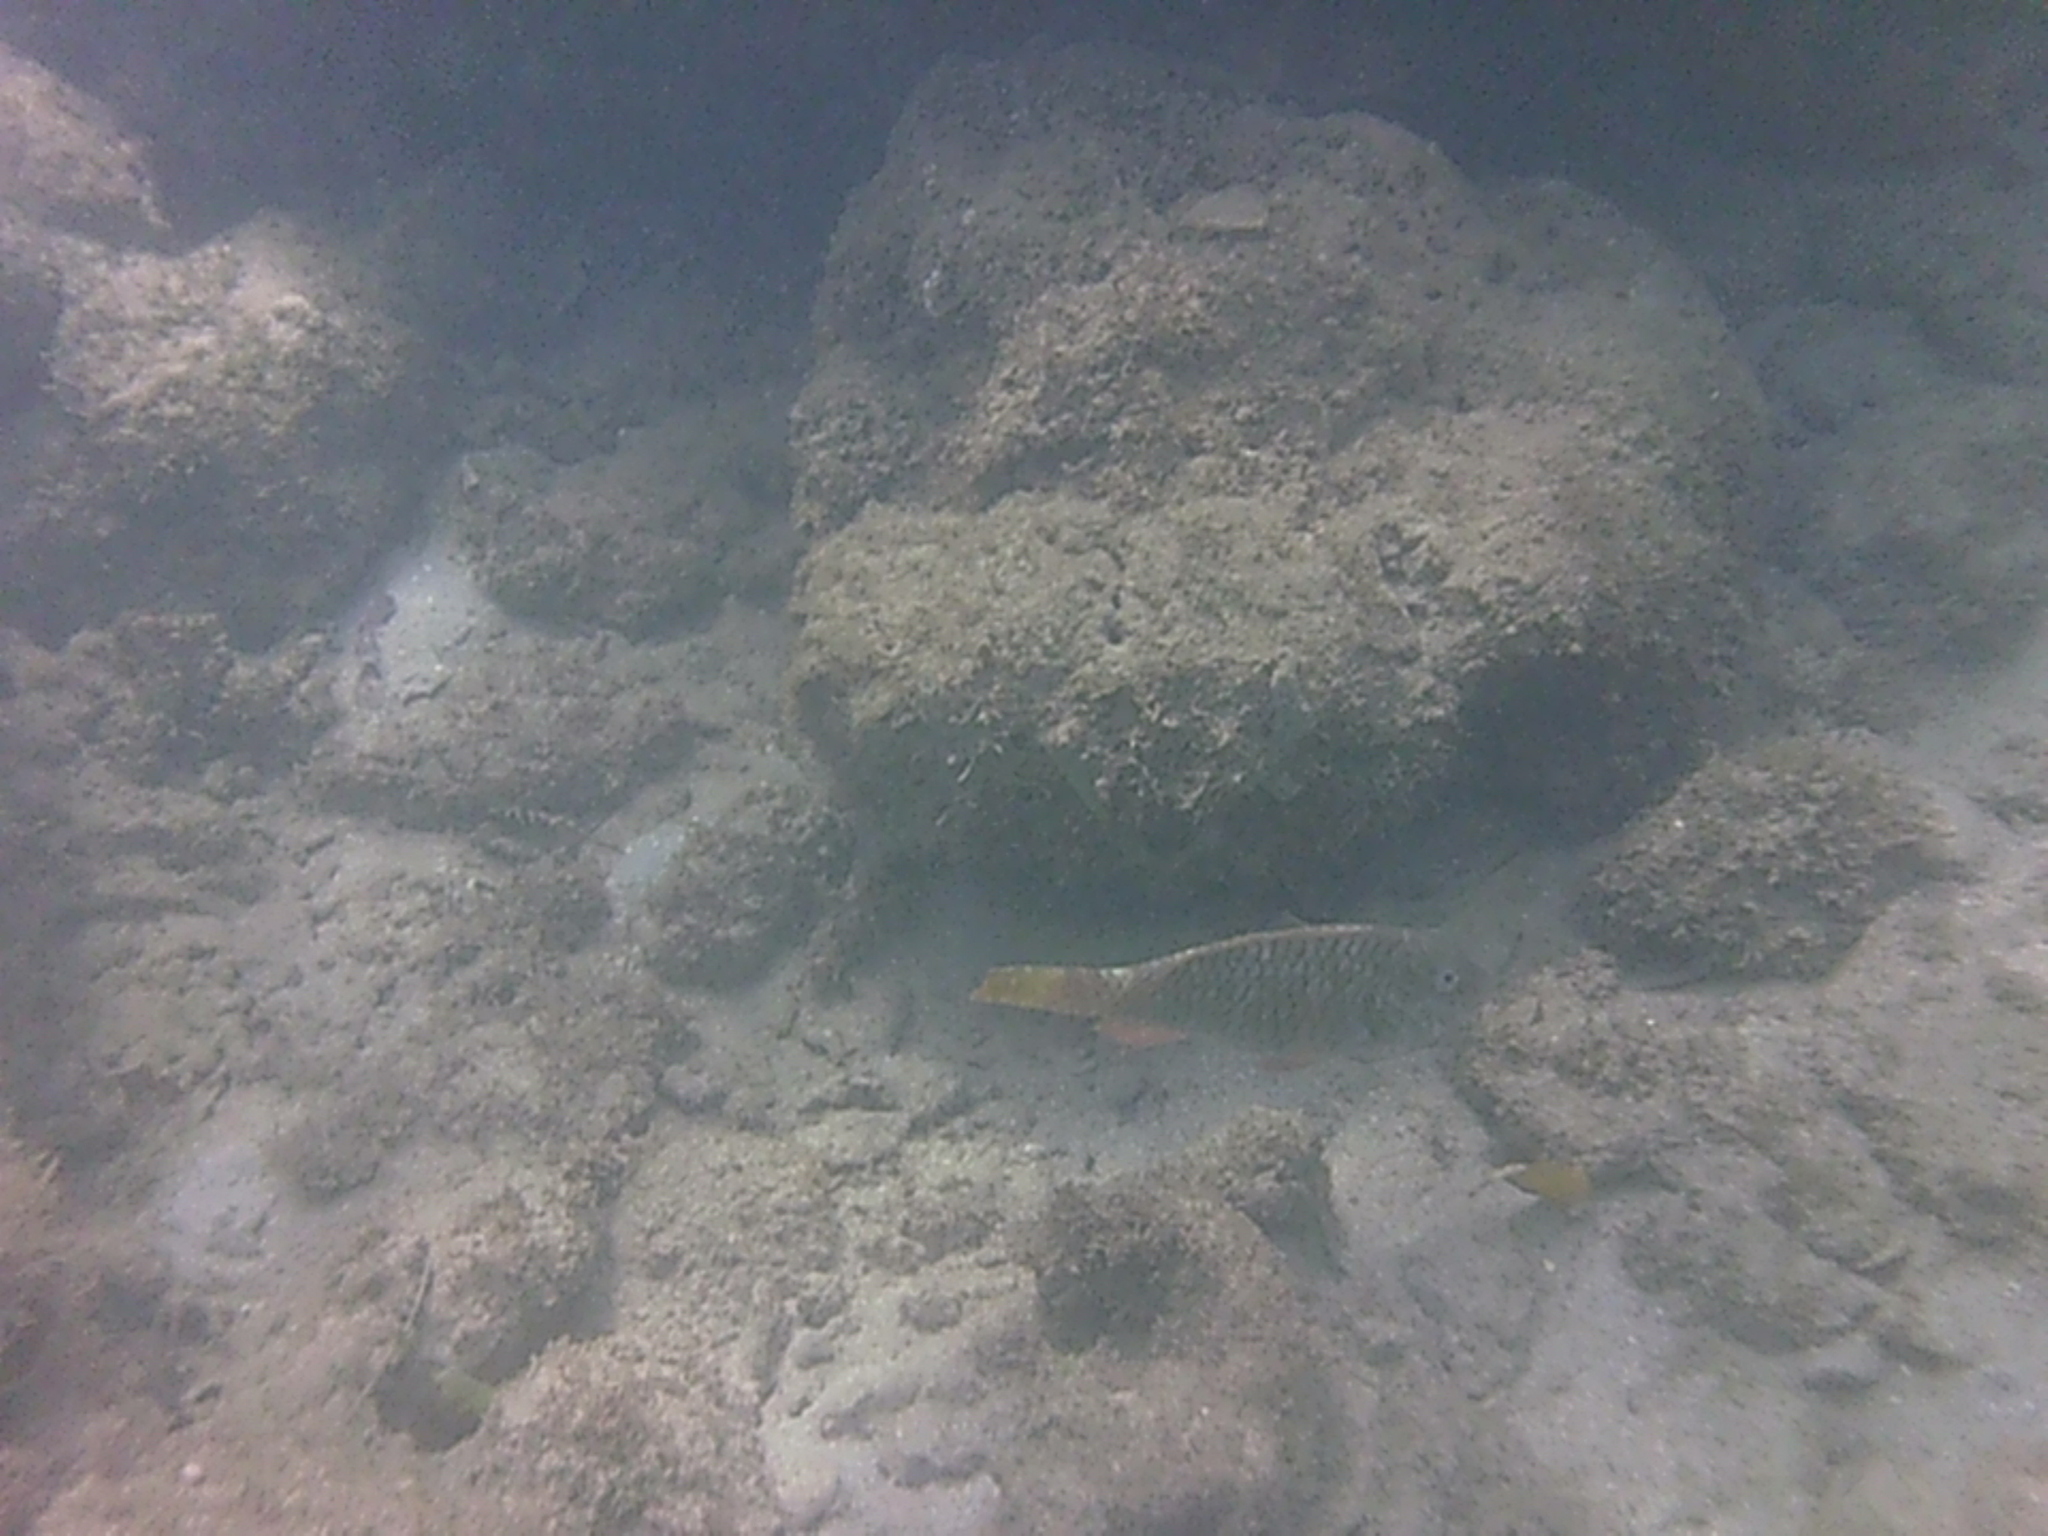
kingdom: Animalia
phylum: Chordata
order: Perciformes
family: Scaridae
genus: Sparisoma
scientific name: Sparisoma rubripinne
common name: Redfin parrotfish
